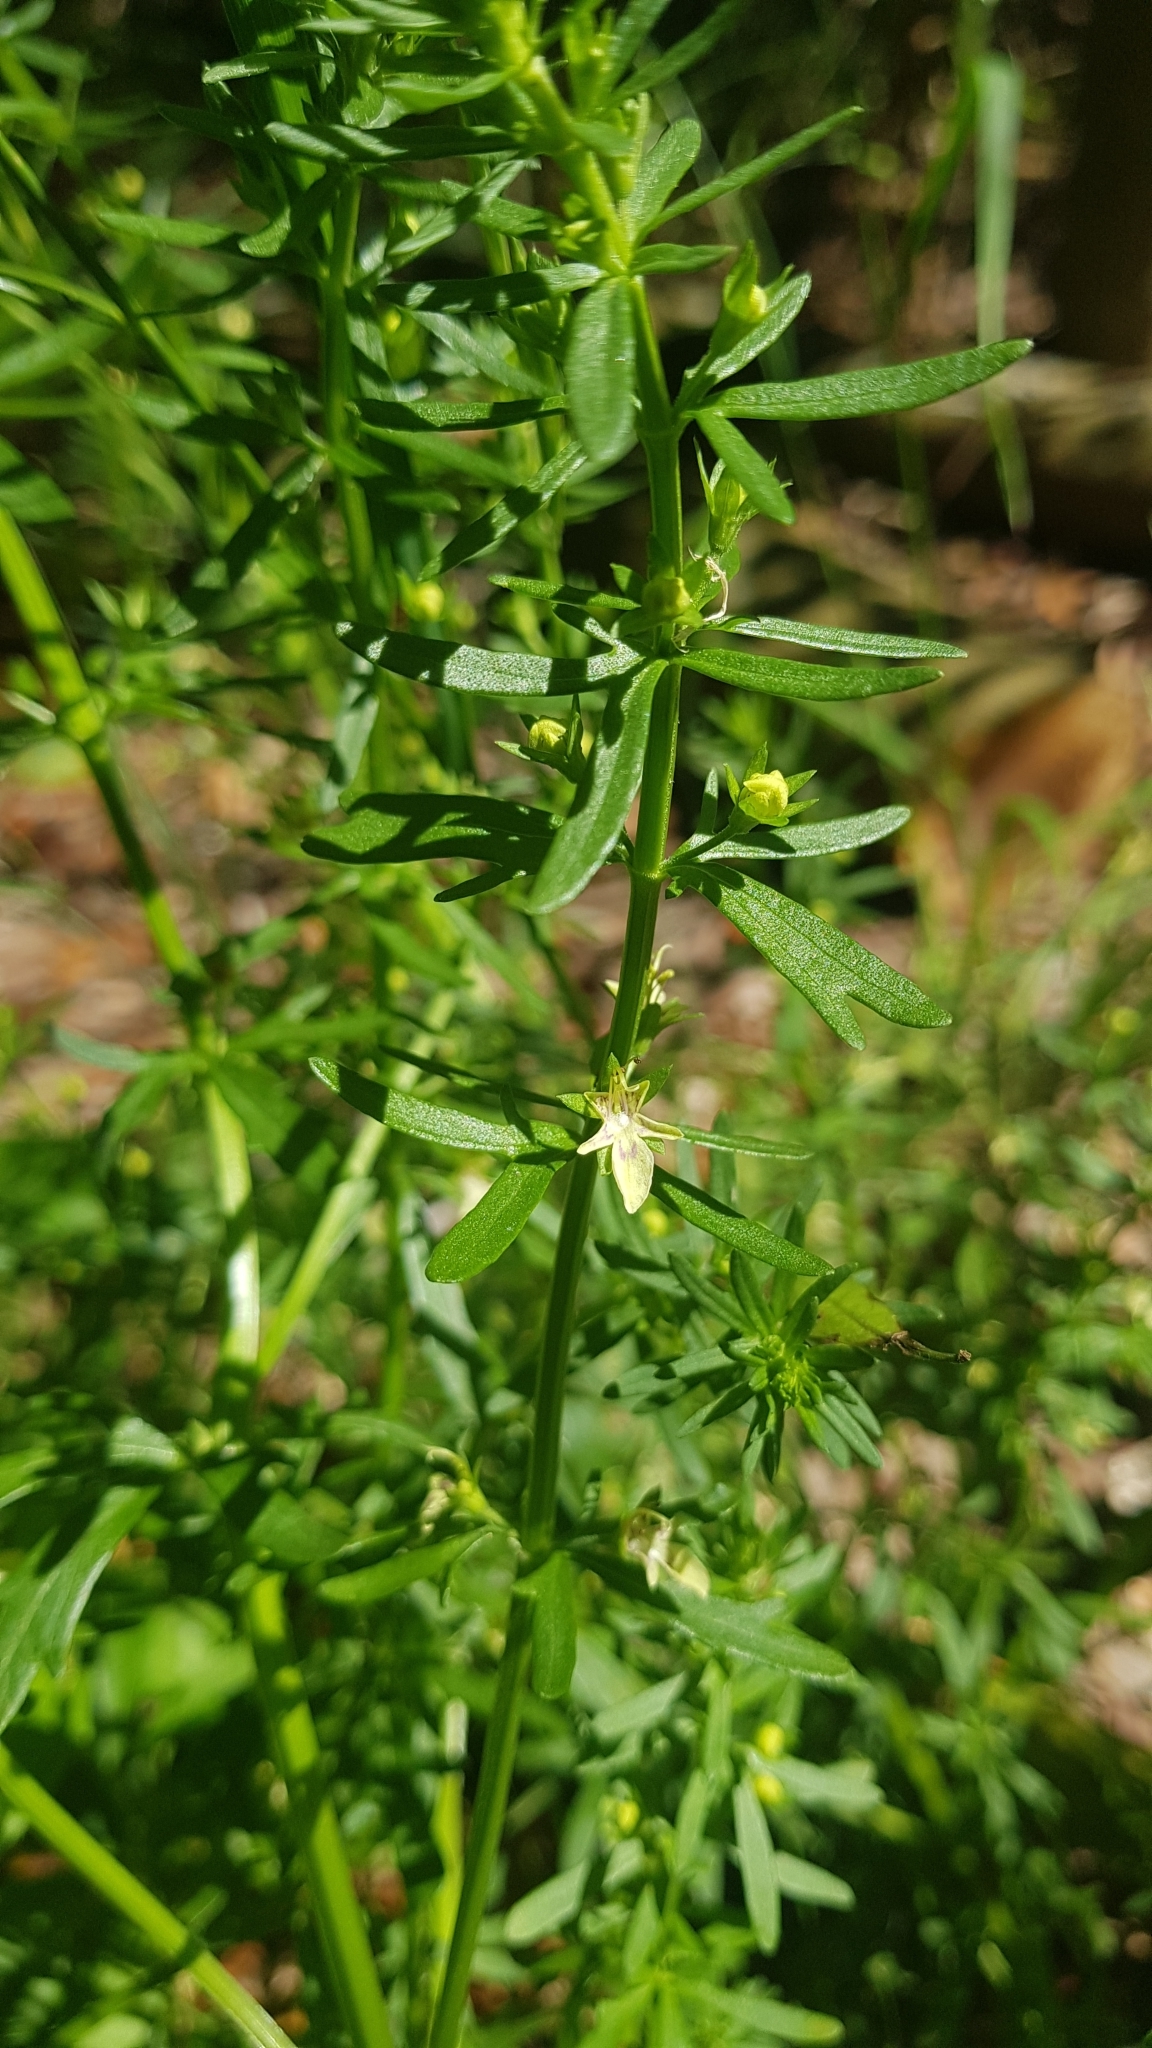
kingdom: Plantae
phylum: Tracheophyta
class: Magnoliopsida
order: Lamiales
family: Lamiaceae
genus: Teucrium
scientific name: Teucrium cubense
